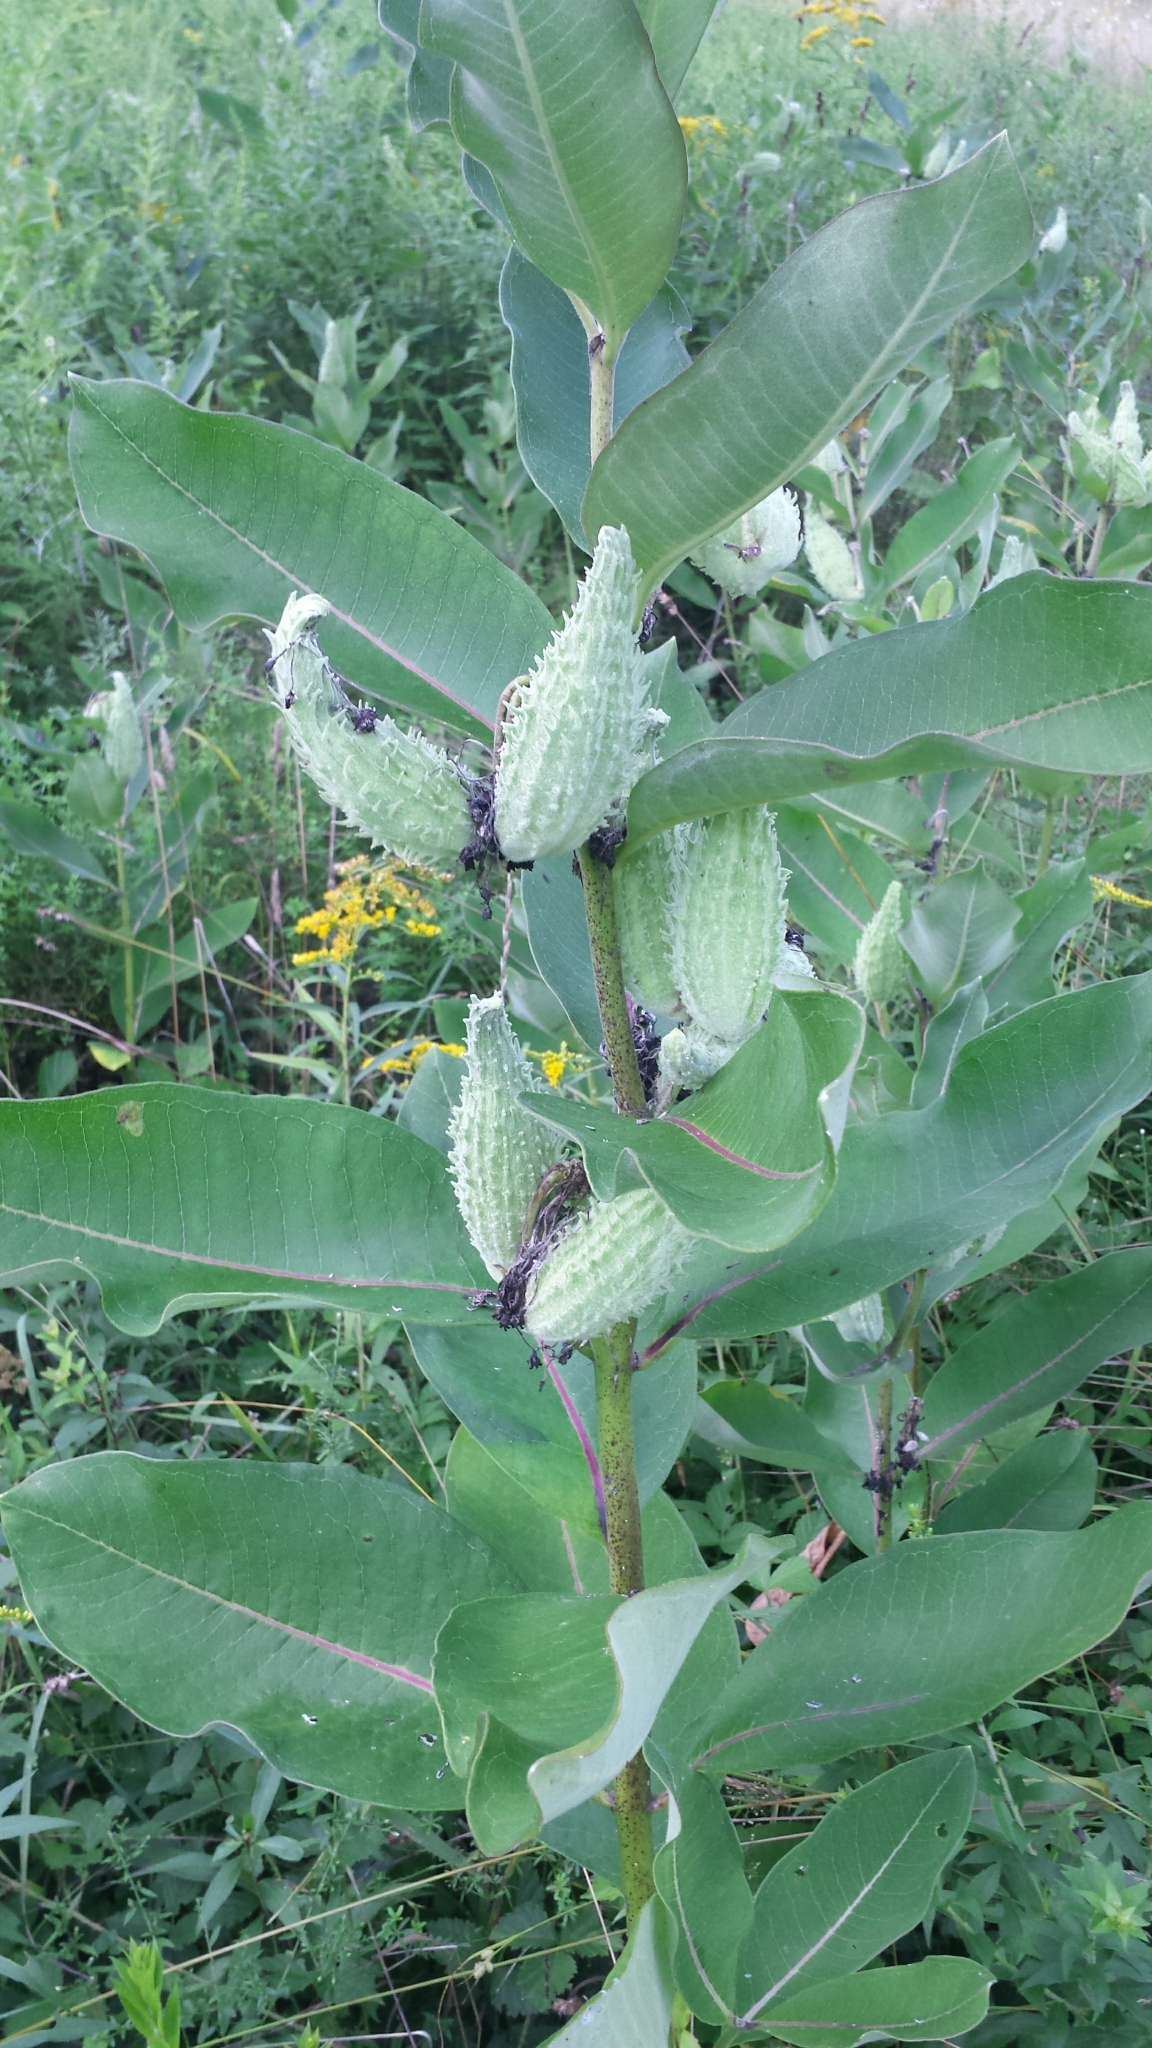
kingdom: Plantae
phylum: Tracheophyta
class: Magnoliopsida
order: Gentianales
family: Apocynaceae
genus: Asclepias
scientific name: Asclepias syriaca
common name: Common milkweed
